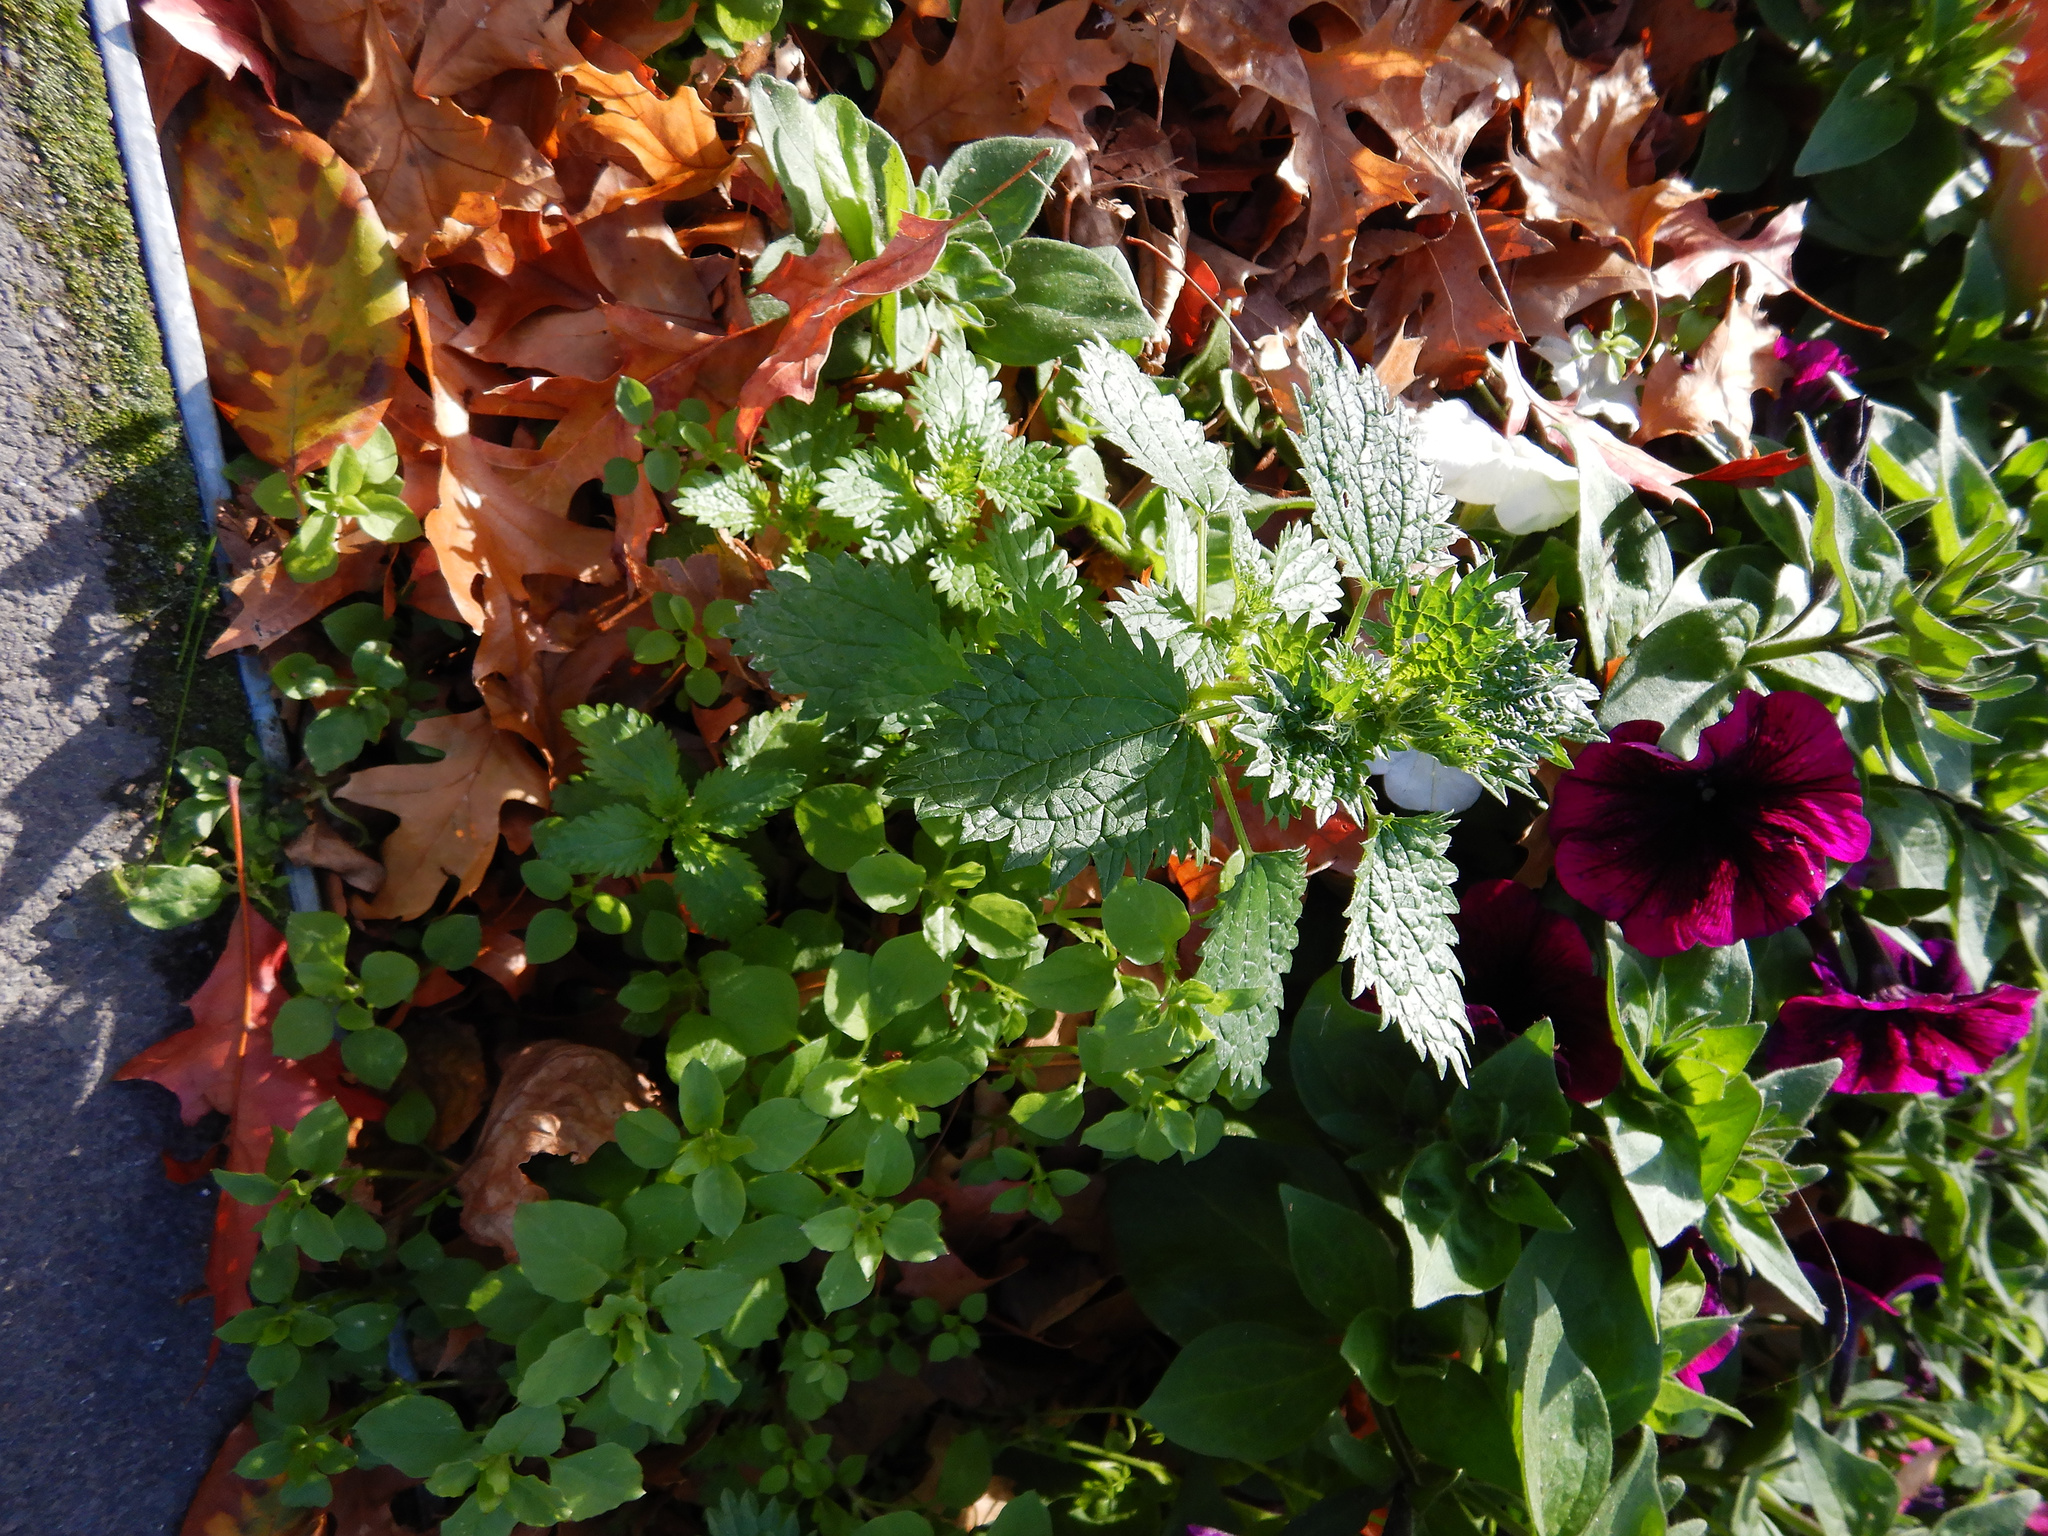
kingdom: Plantae
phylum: Tracheophyta
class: Magnoliopsida
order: Rosales
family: Urticaceae
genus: Urtica
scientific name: Urtica urens
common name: Dwarf nettle
